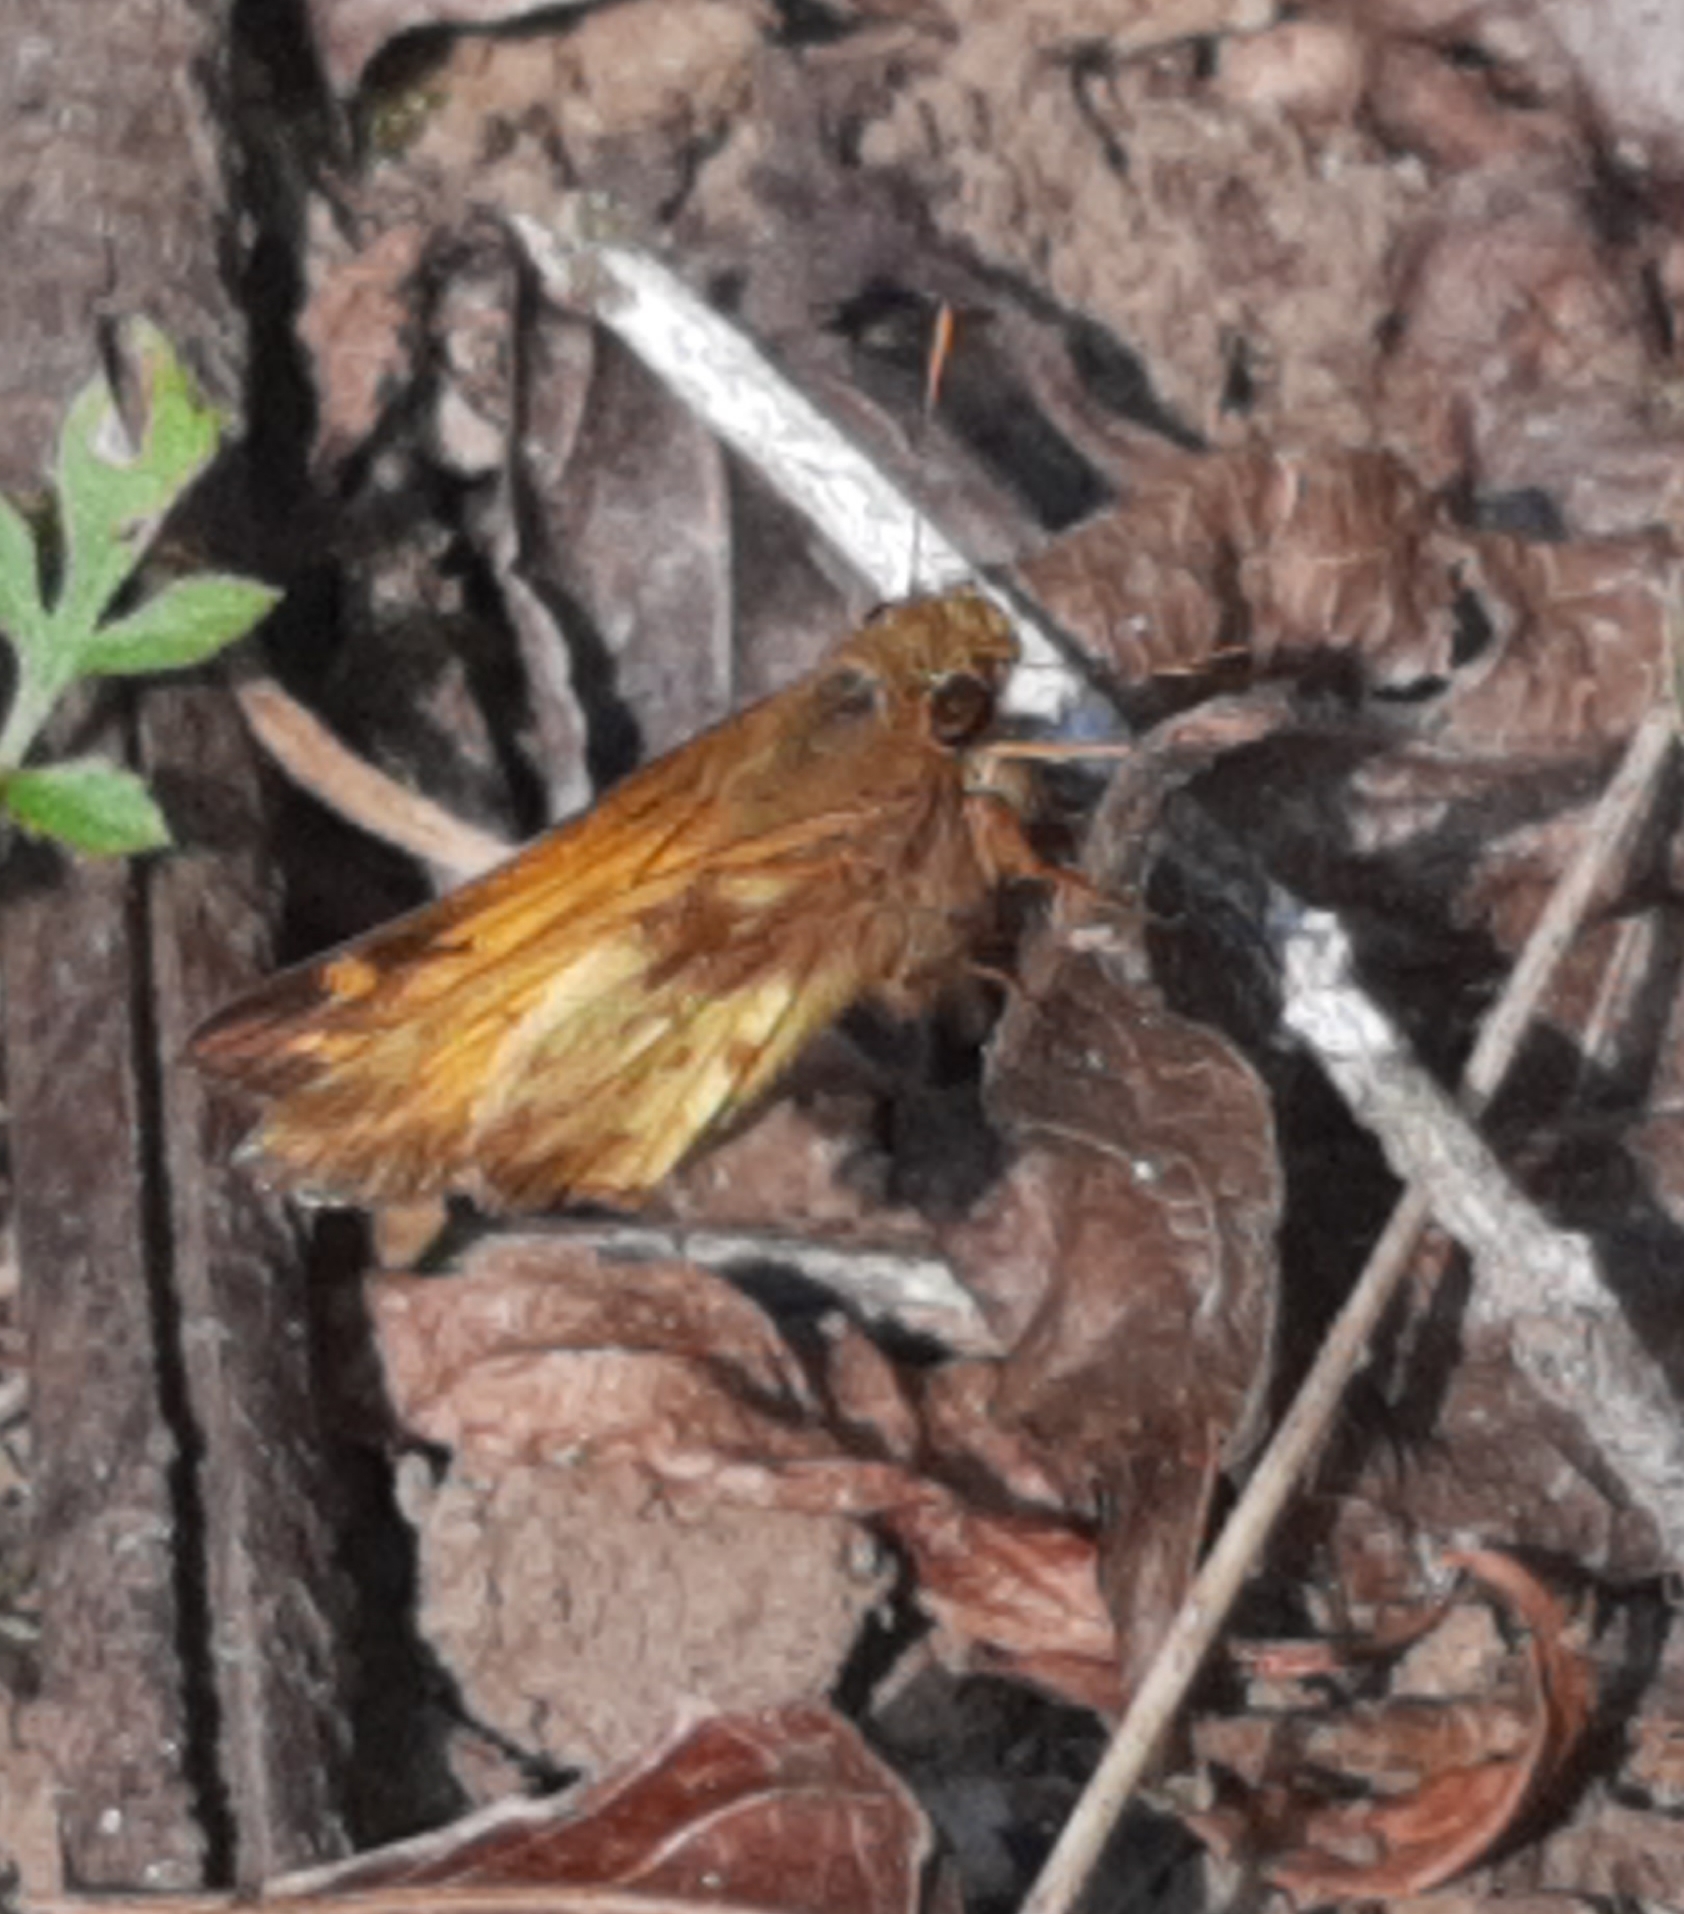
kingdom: Animalia
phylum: Arthropoda
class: Insecta
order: Lepidoptera
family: Hesperiidae
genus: Lon
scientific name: Lon zabulon
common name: Zabulon skipper
